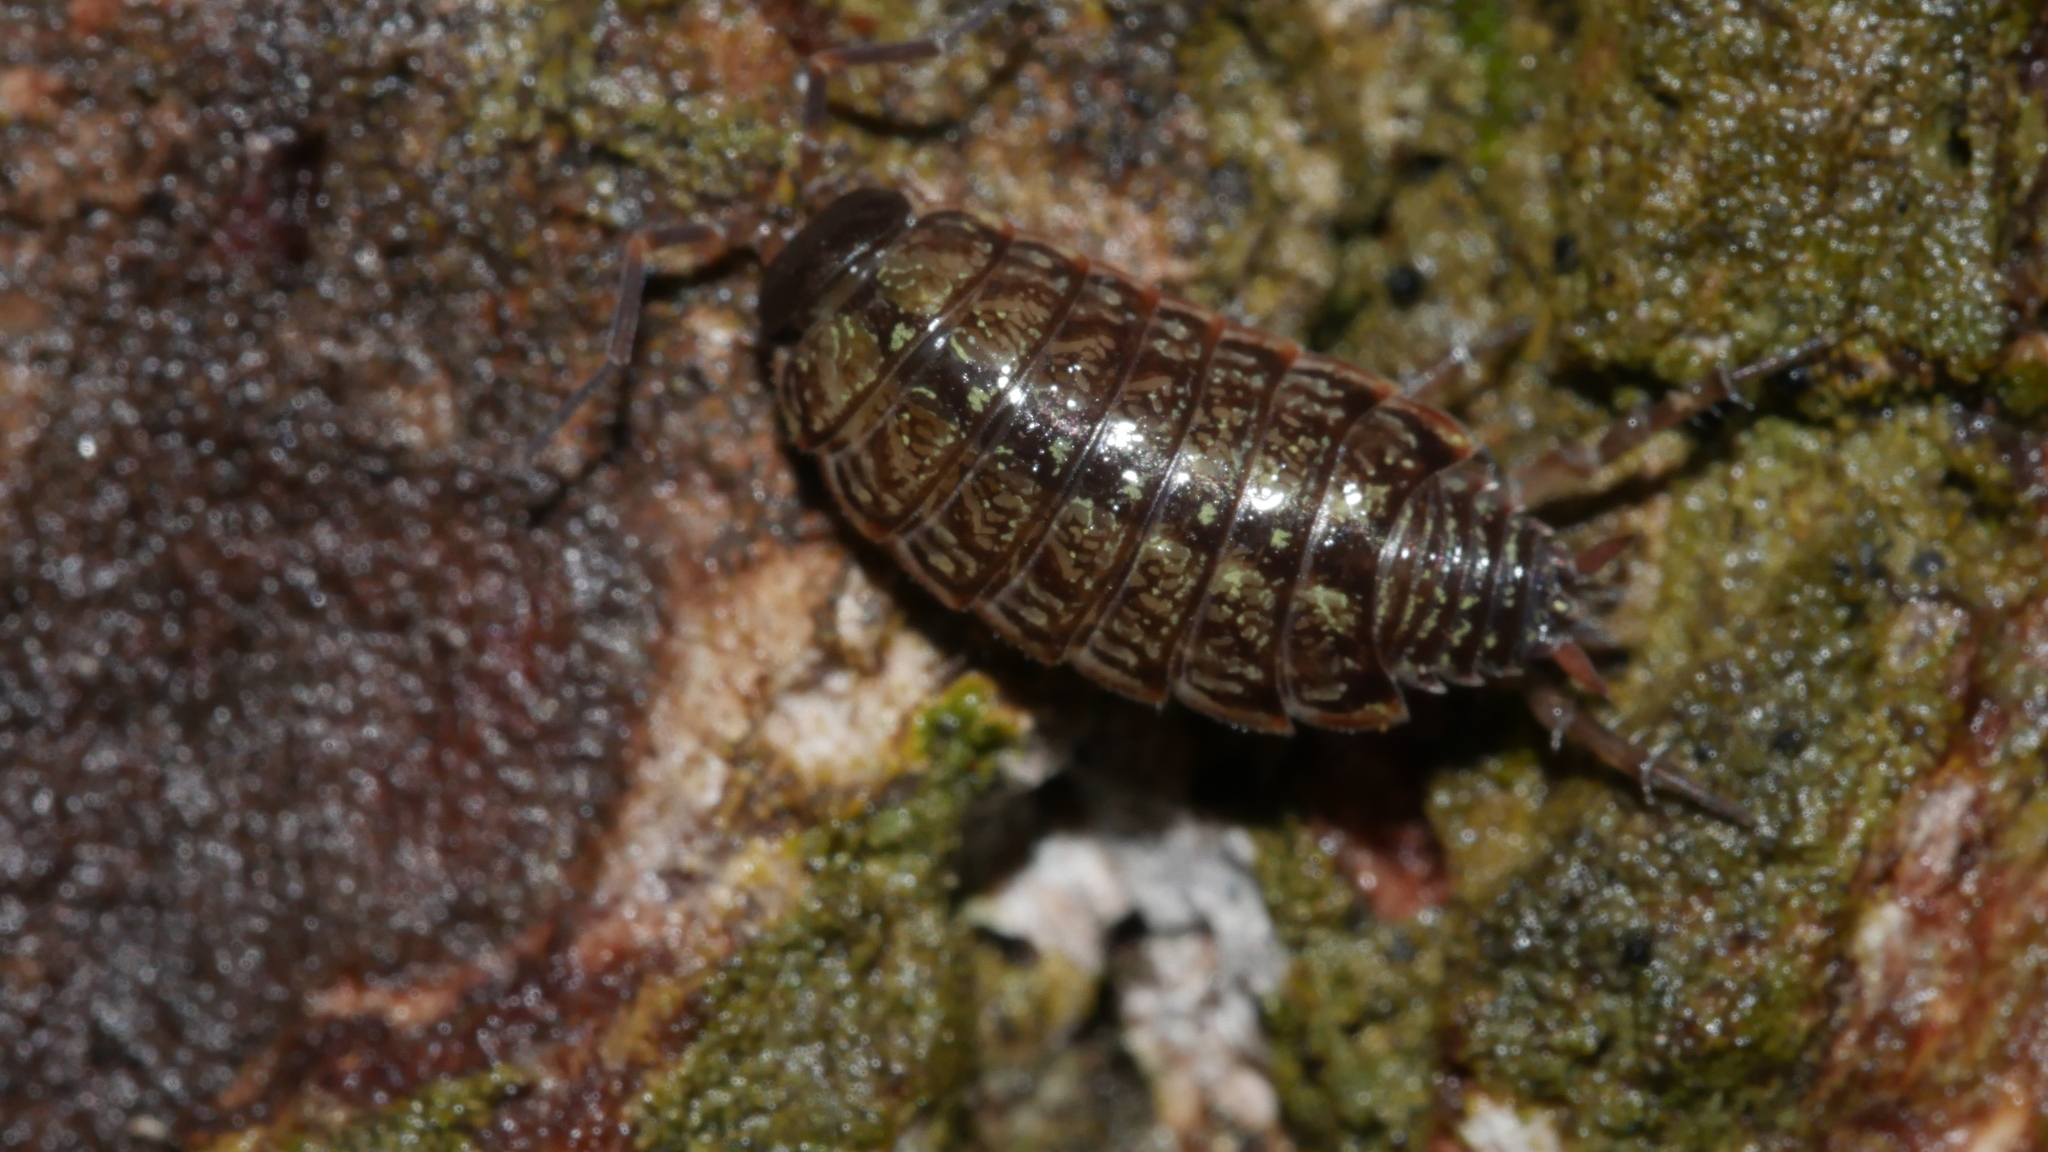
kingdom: Animalia
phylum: Arthropoda
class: Malacostraca
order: Isopoda
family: Philosciidae
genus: Philoscia
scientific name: Philoscia muscorum
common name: Common striped woodlouse
